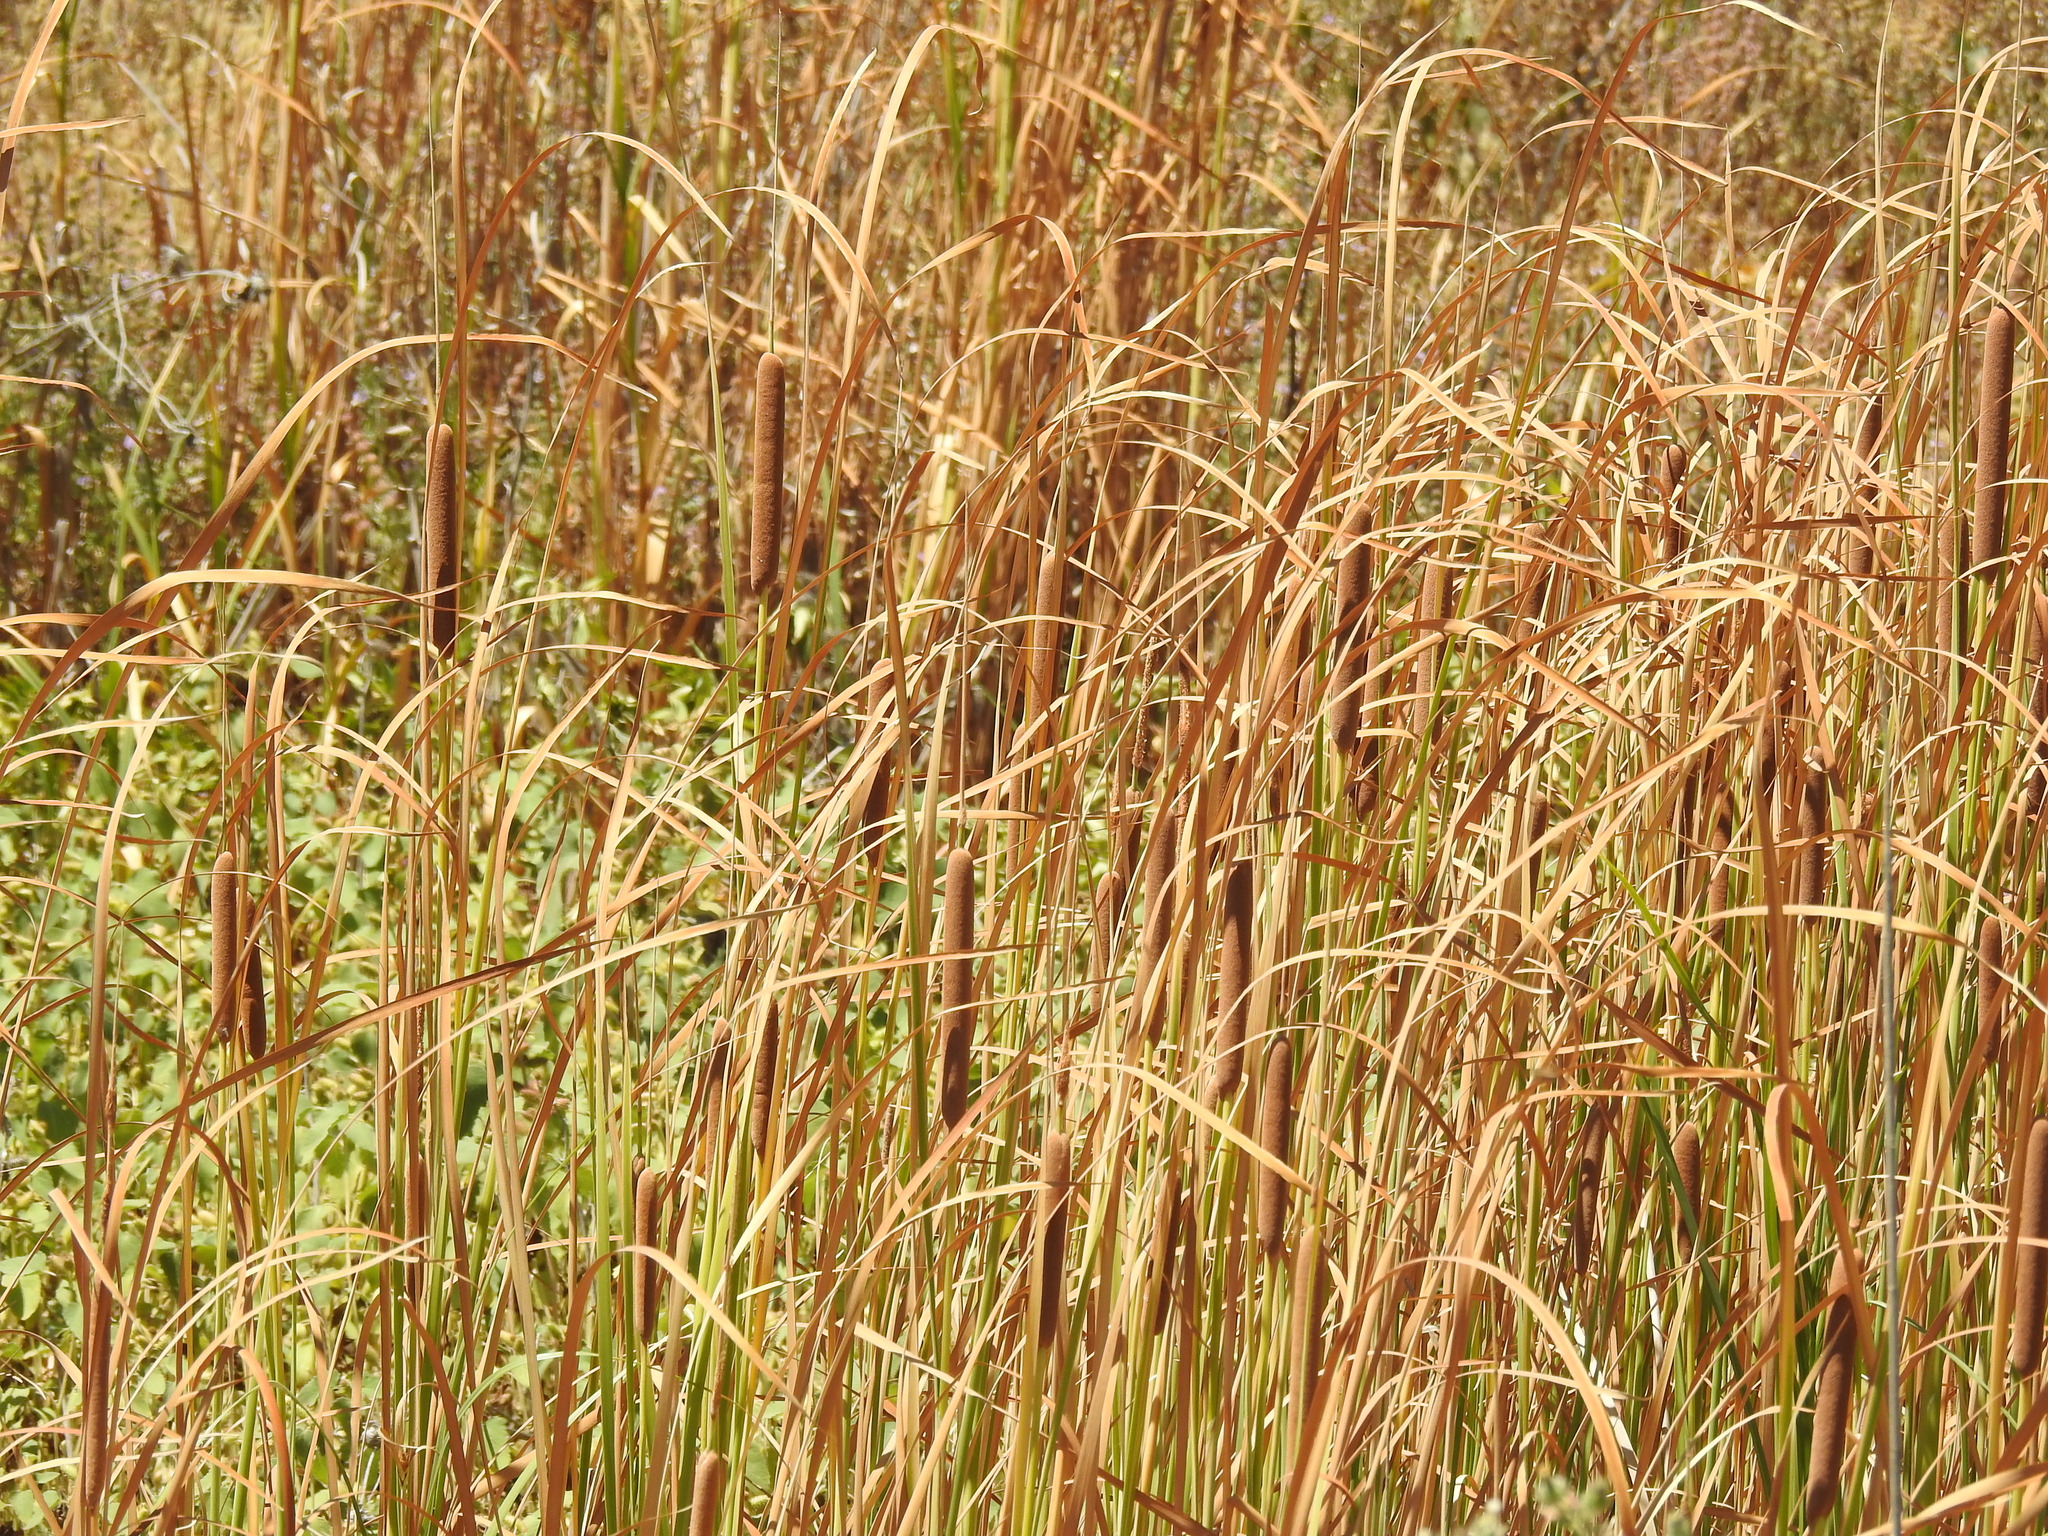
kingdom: Plantae
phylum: Tracheophyta
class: Liliopsida
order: Poales
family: Typhaceae
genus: Typha
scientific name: Typha angustifolia
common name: Lesser bulrush
